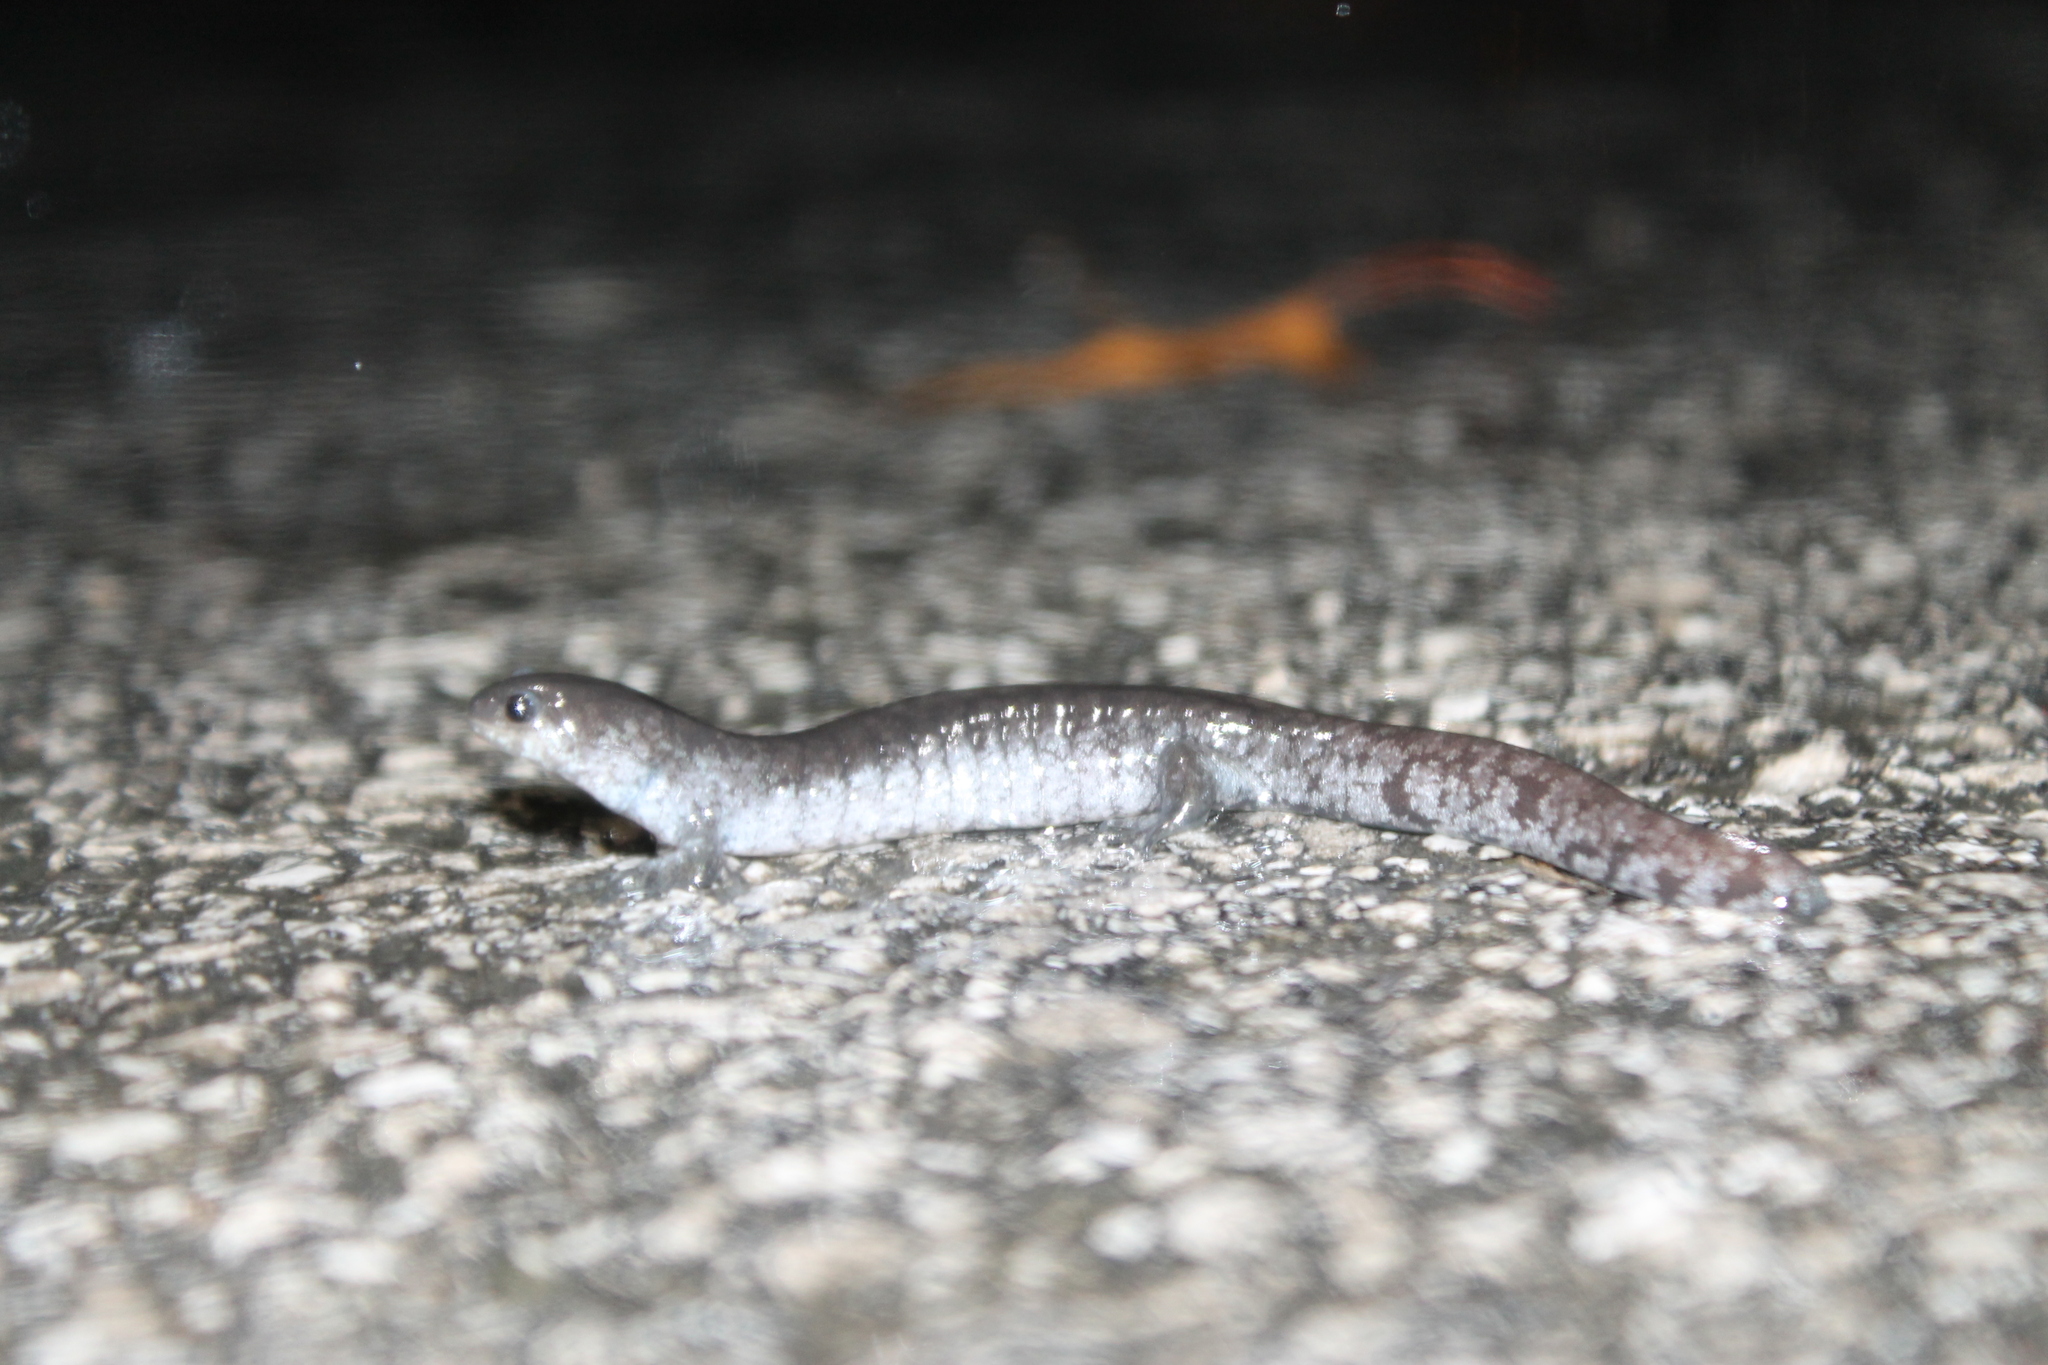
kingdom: Animalia
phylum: Chordata
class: Amphibia
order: Caudata
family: Ambystomatidae
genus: Ambystoma
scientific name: Ambystoma texanum
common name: Small-mouth salamander
